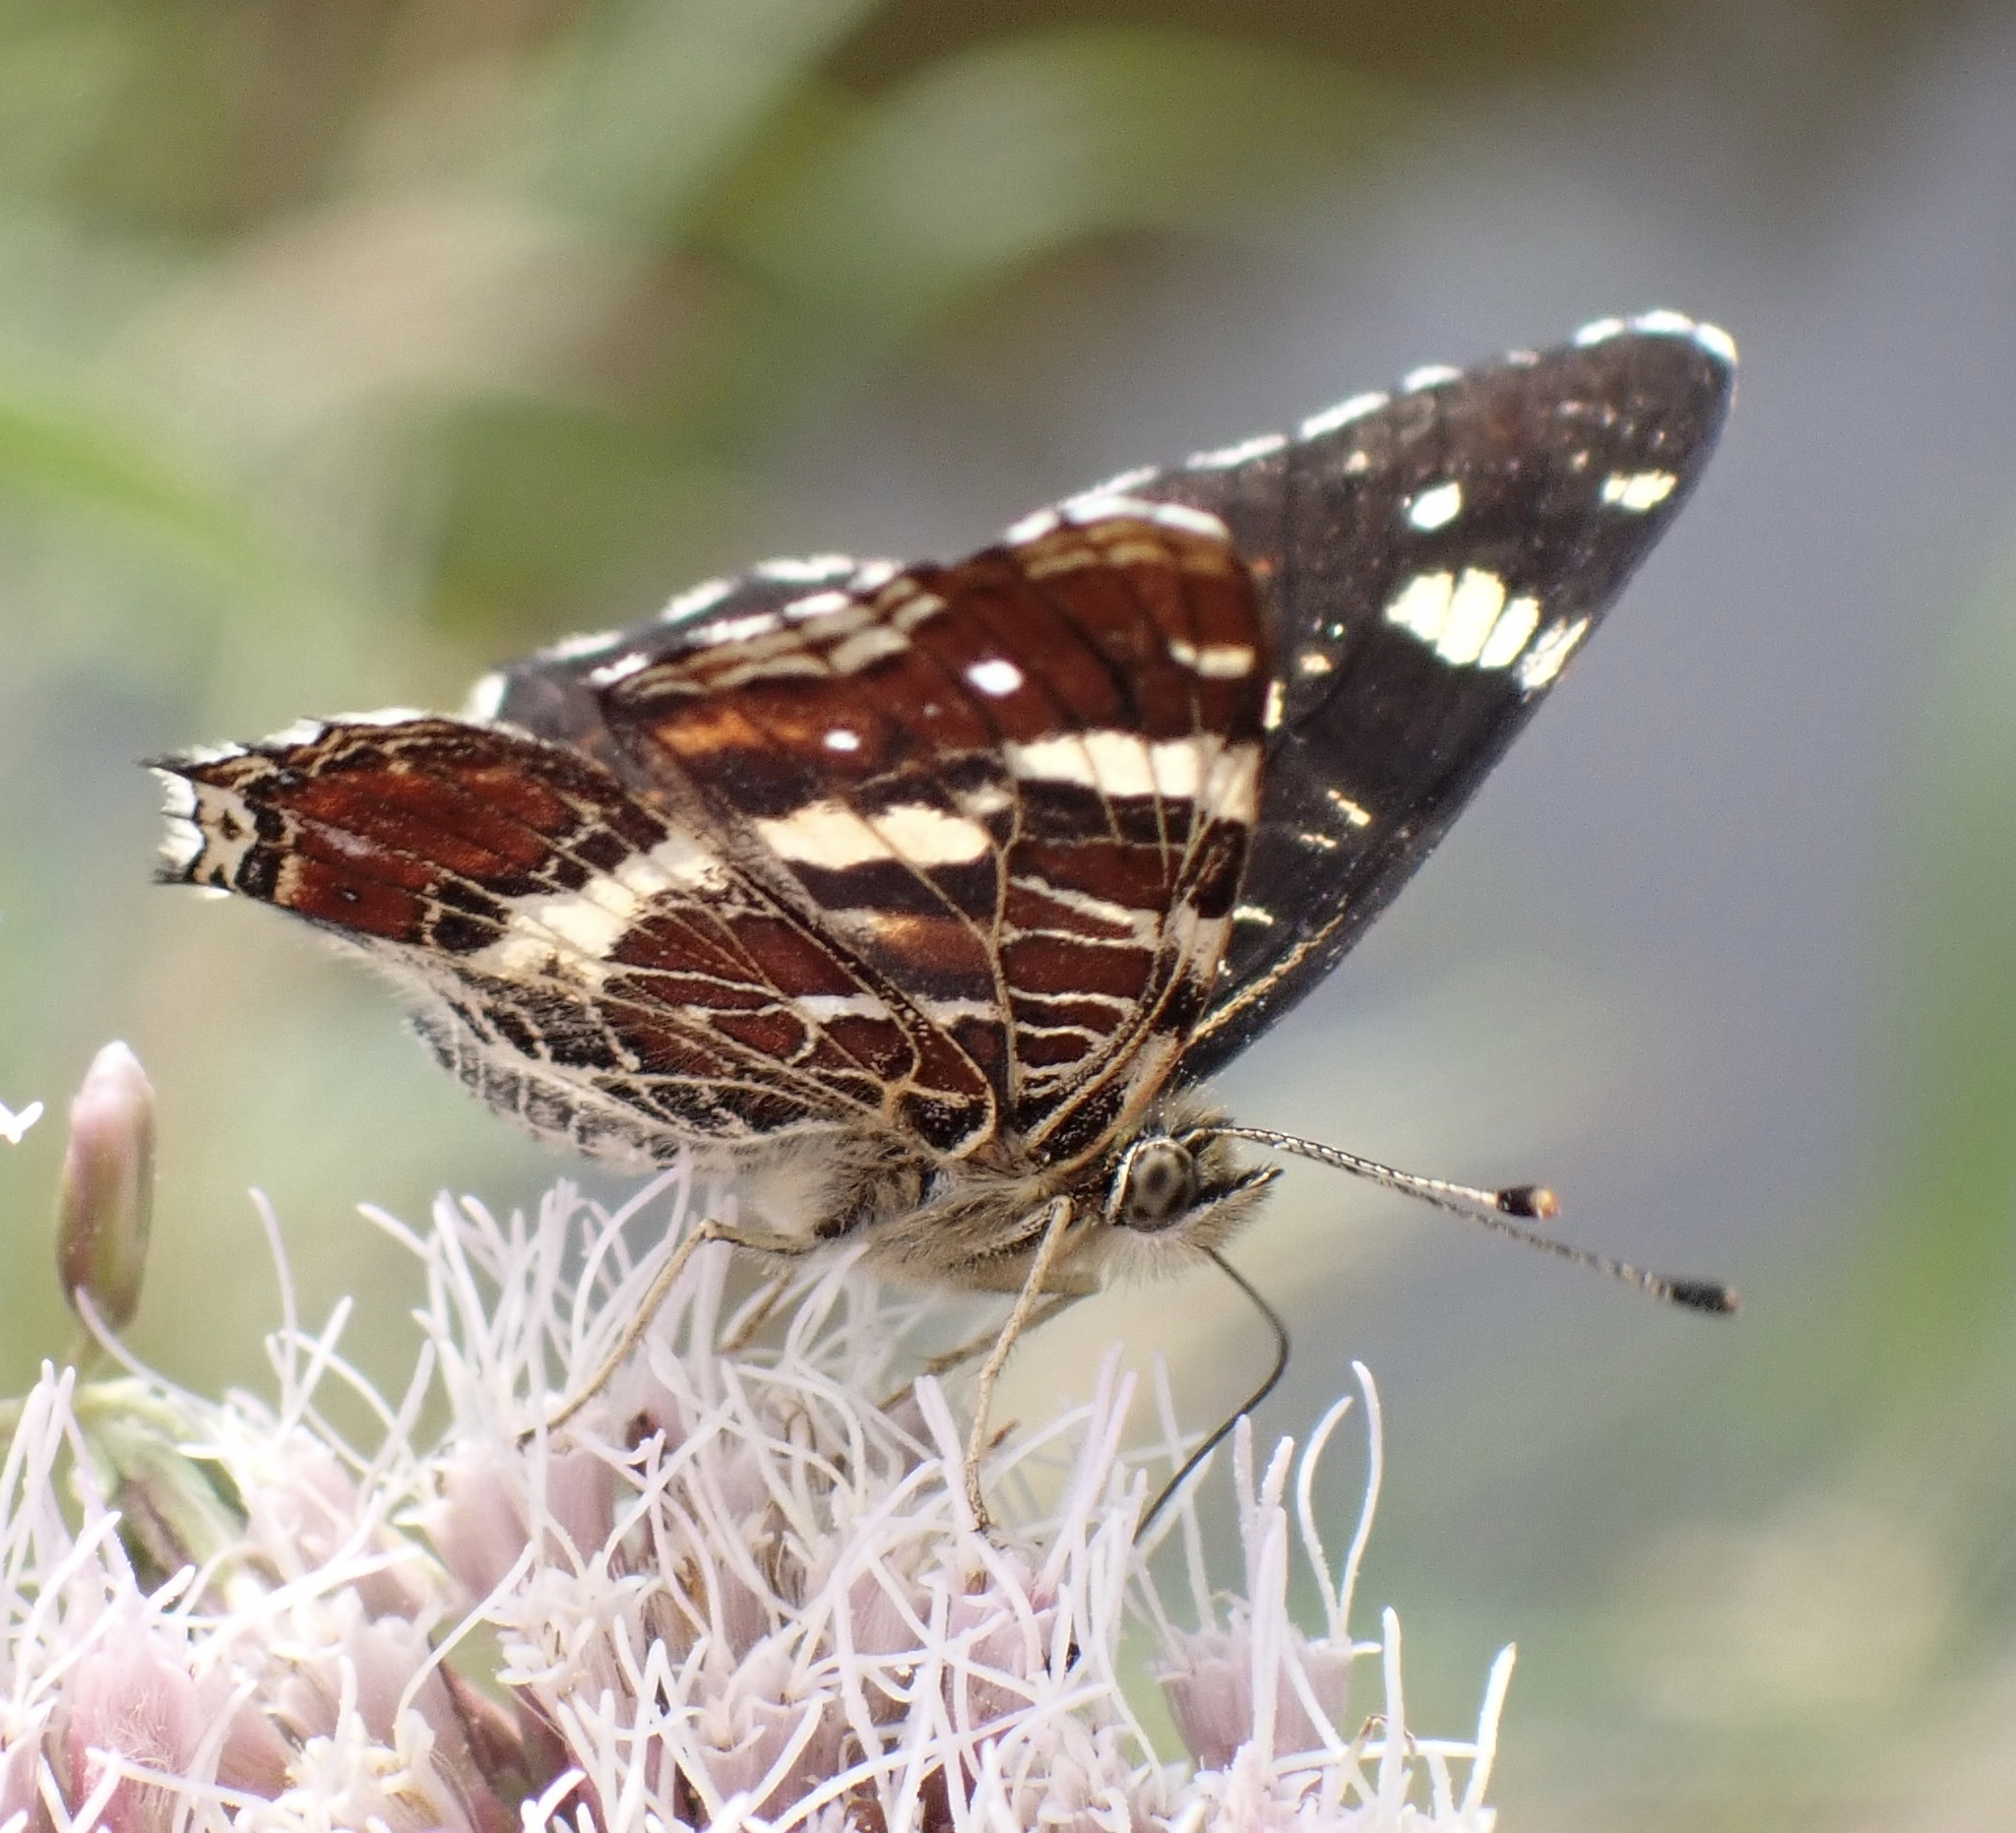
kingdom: Animalia
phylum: Arthropoda
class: Insecta
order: Lepidoptera
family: Nymphalidae
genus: Araschnia
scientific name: Araschnia levana
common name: Map butterfly
